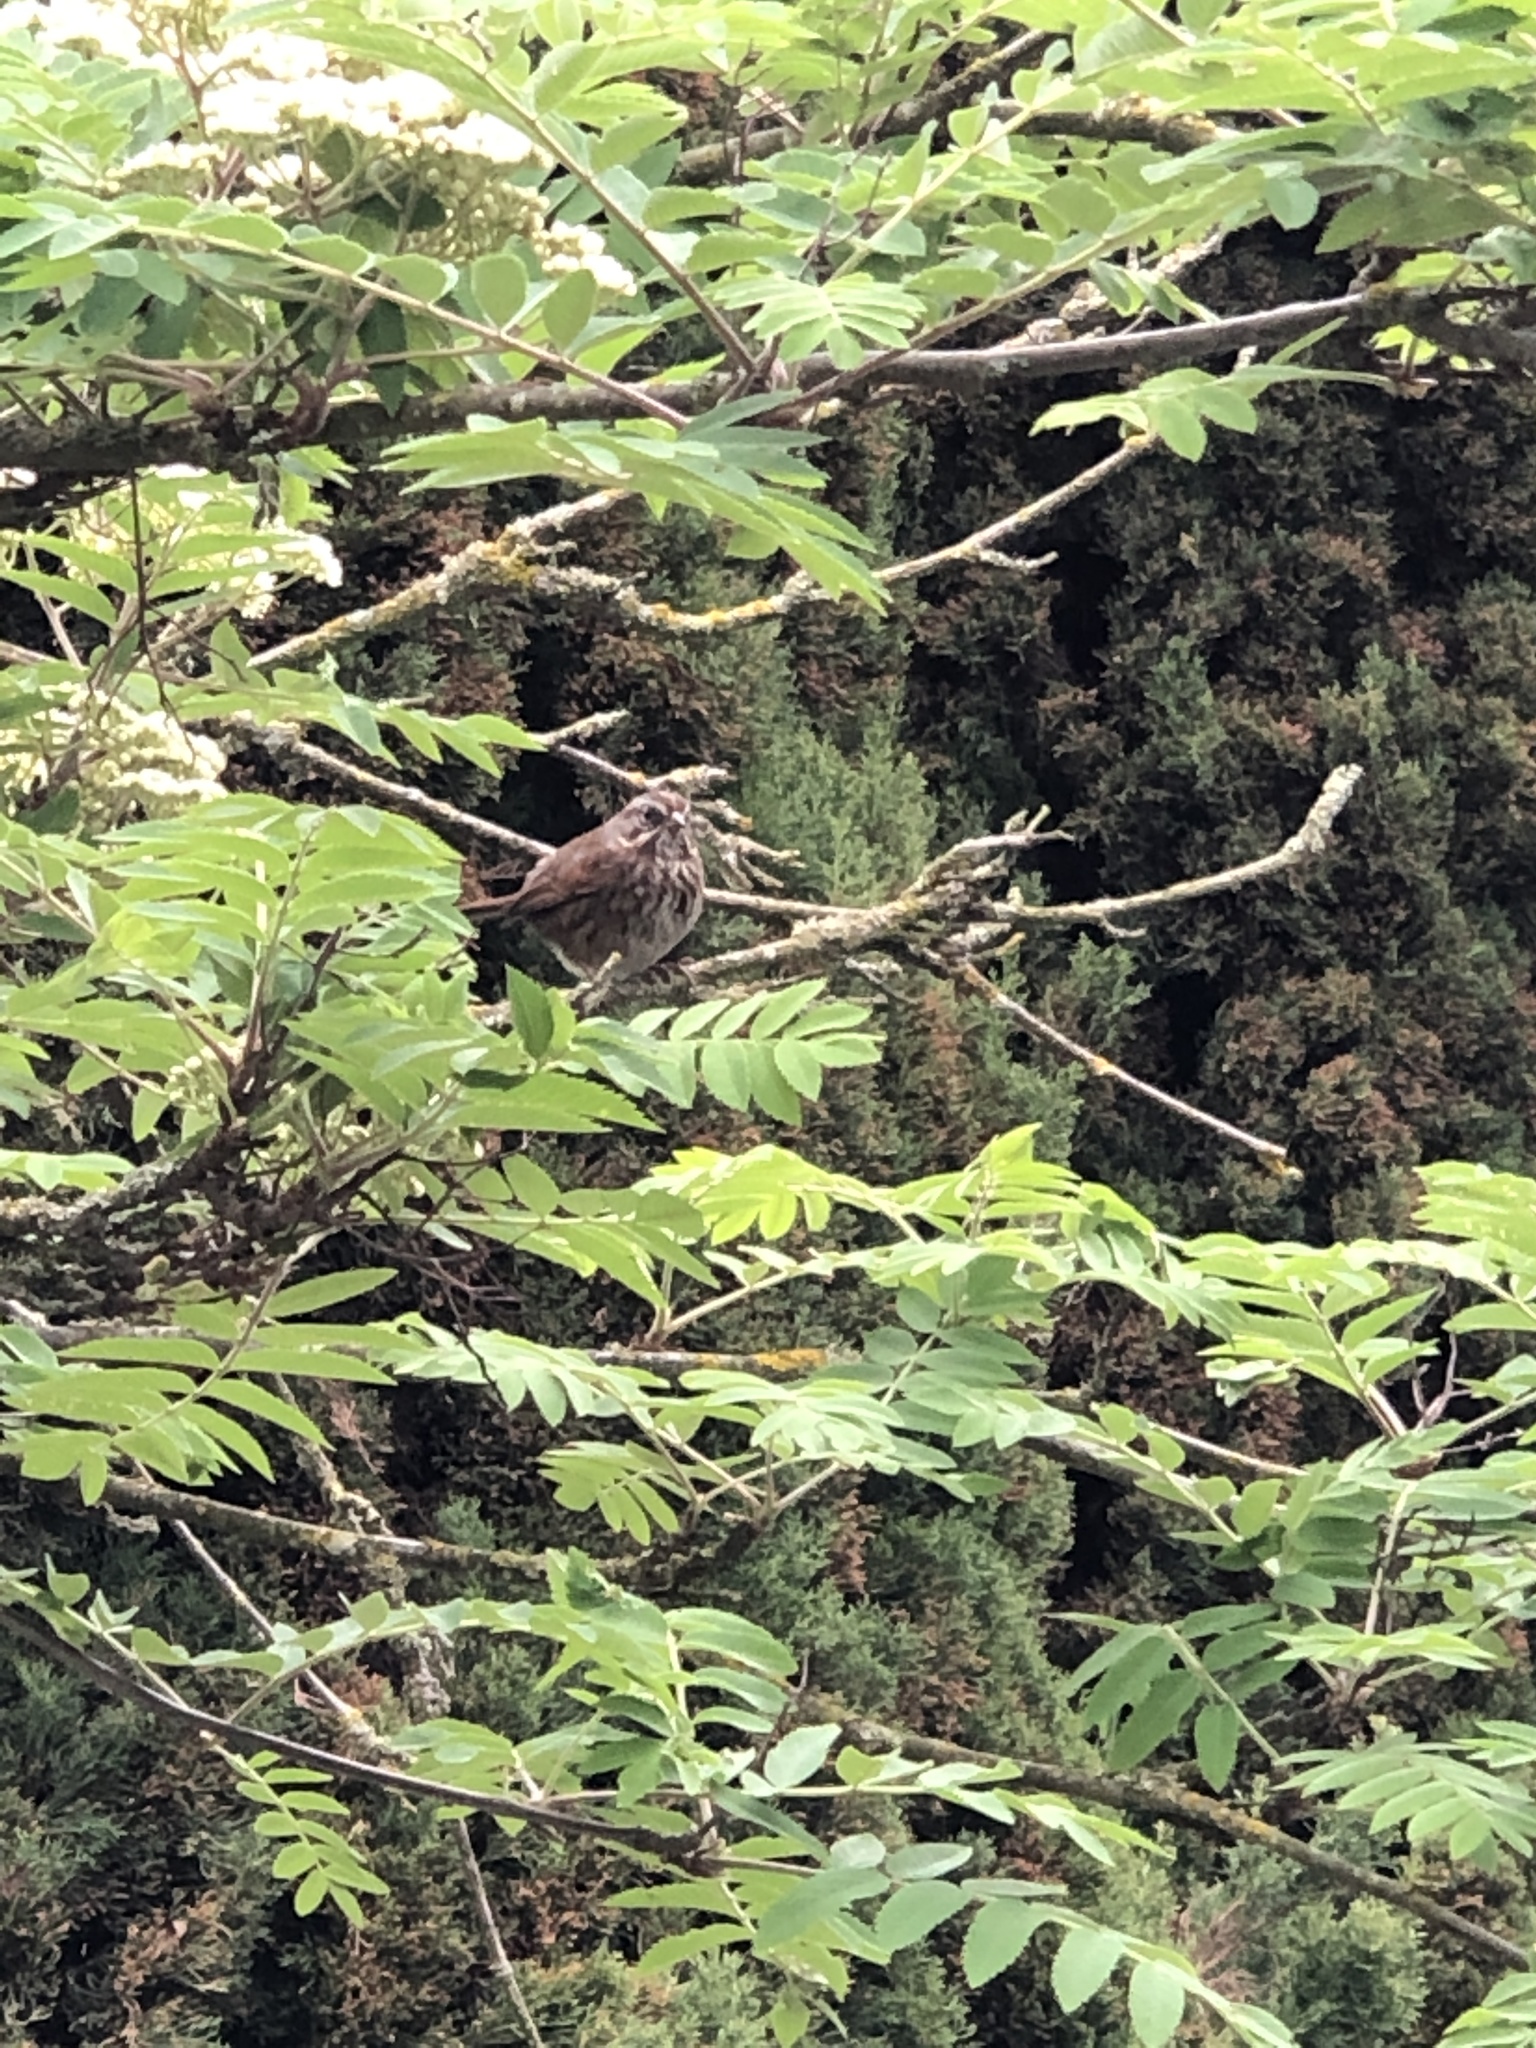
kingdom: Animalia
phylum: Chordata
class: Aves
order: Passeriformes
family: Passerellidae
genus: Melospiza
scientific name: Melospiza melodia
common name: Song sparrow
